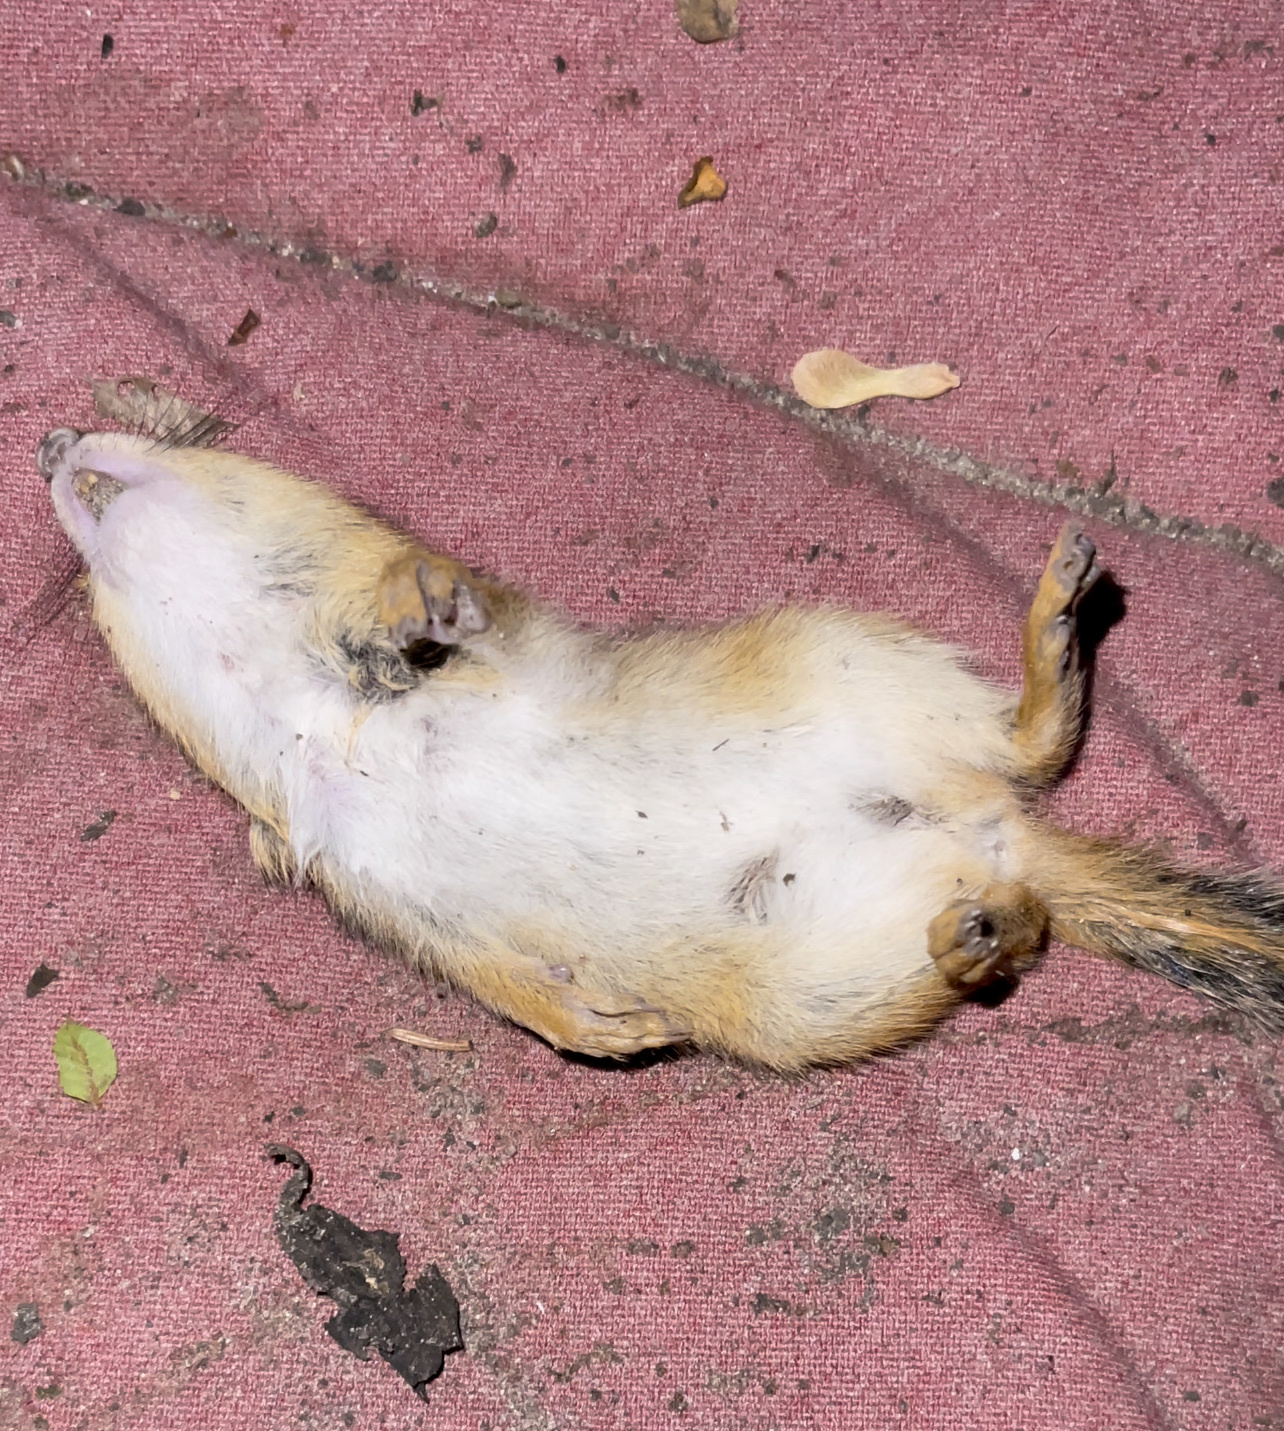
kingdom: Animalia
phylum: Chordata
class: Mammalia
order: Rodentia
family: Sciuridae
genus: Tamias
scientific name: Tamias striatus
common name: Eastern chipmunk
